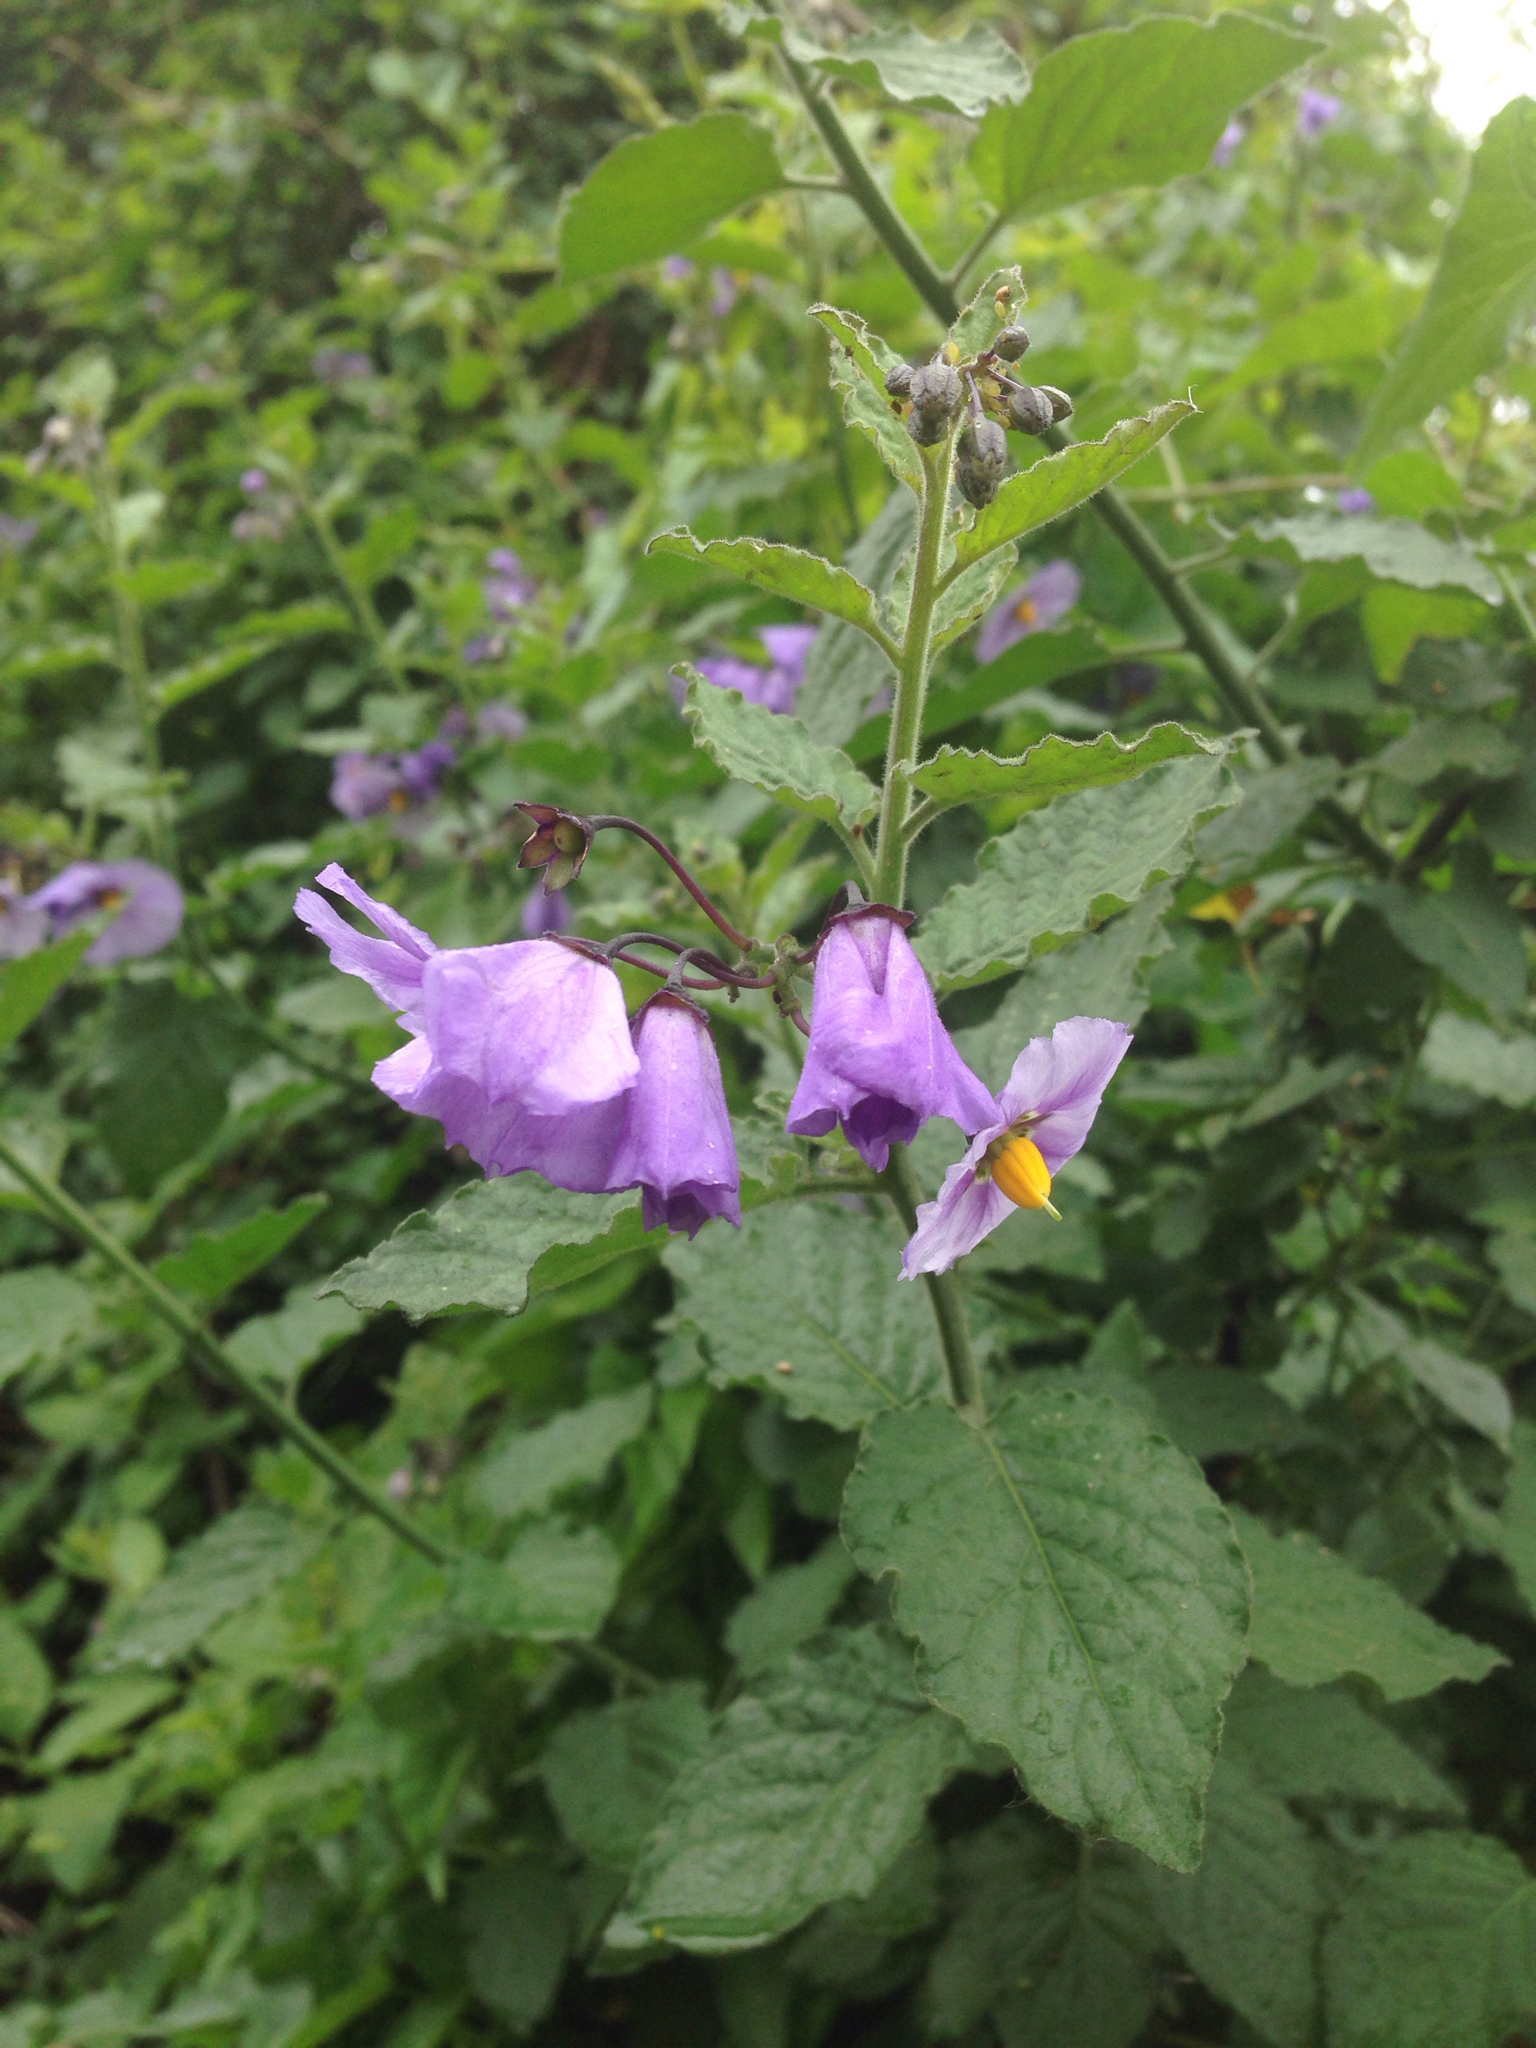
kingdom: Plantae
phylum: Tracheophyta
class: Magnoliopsida
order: Solanales
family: Solanaceae
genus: Solanum
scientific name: Solanum umbelliferum
